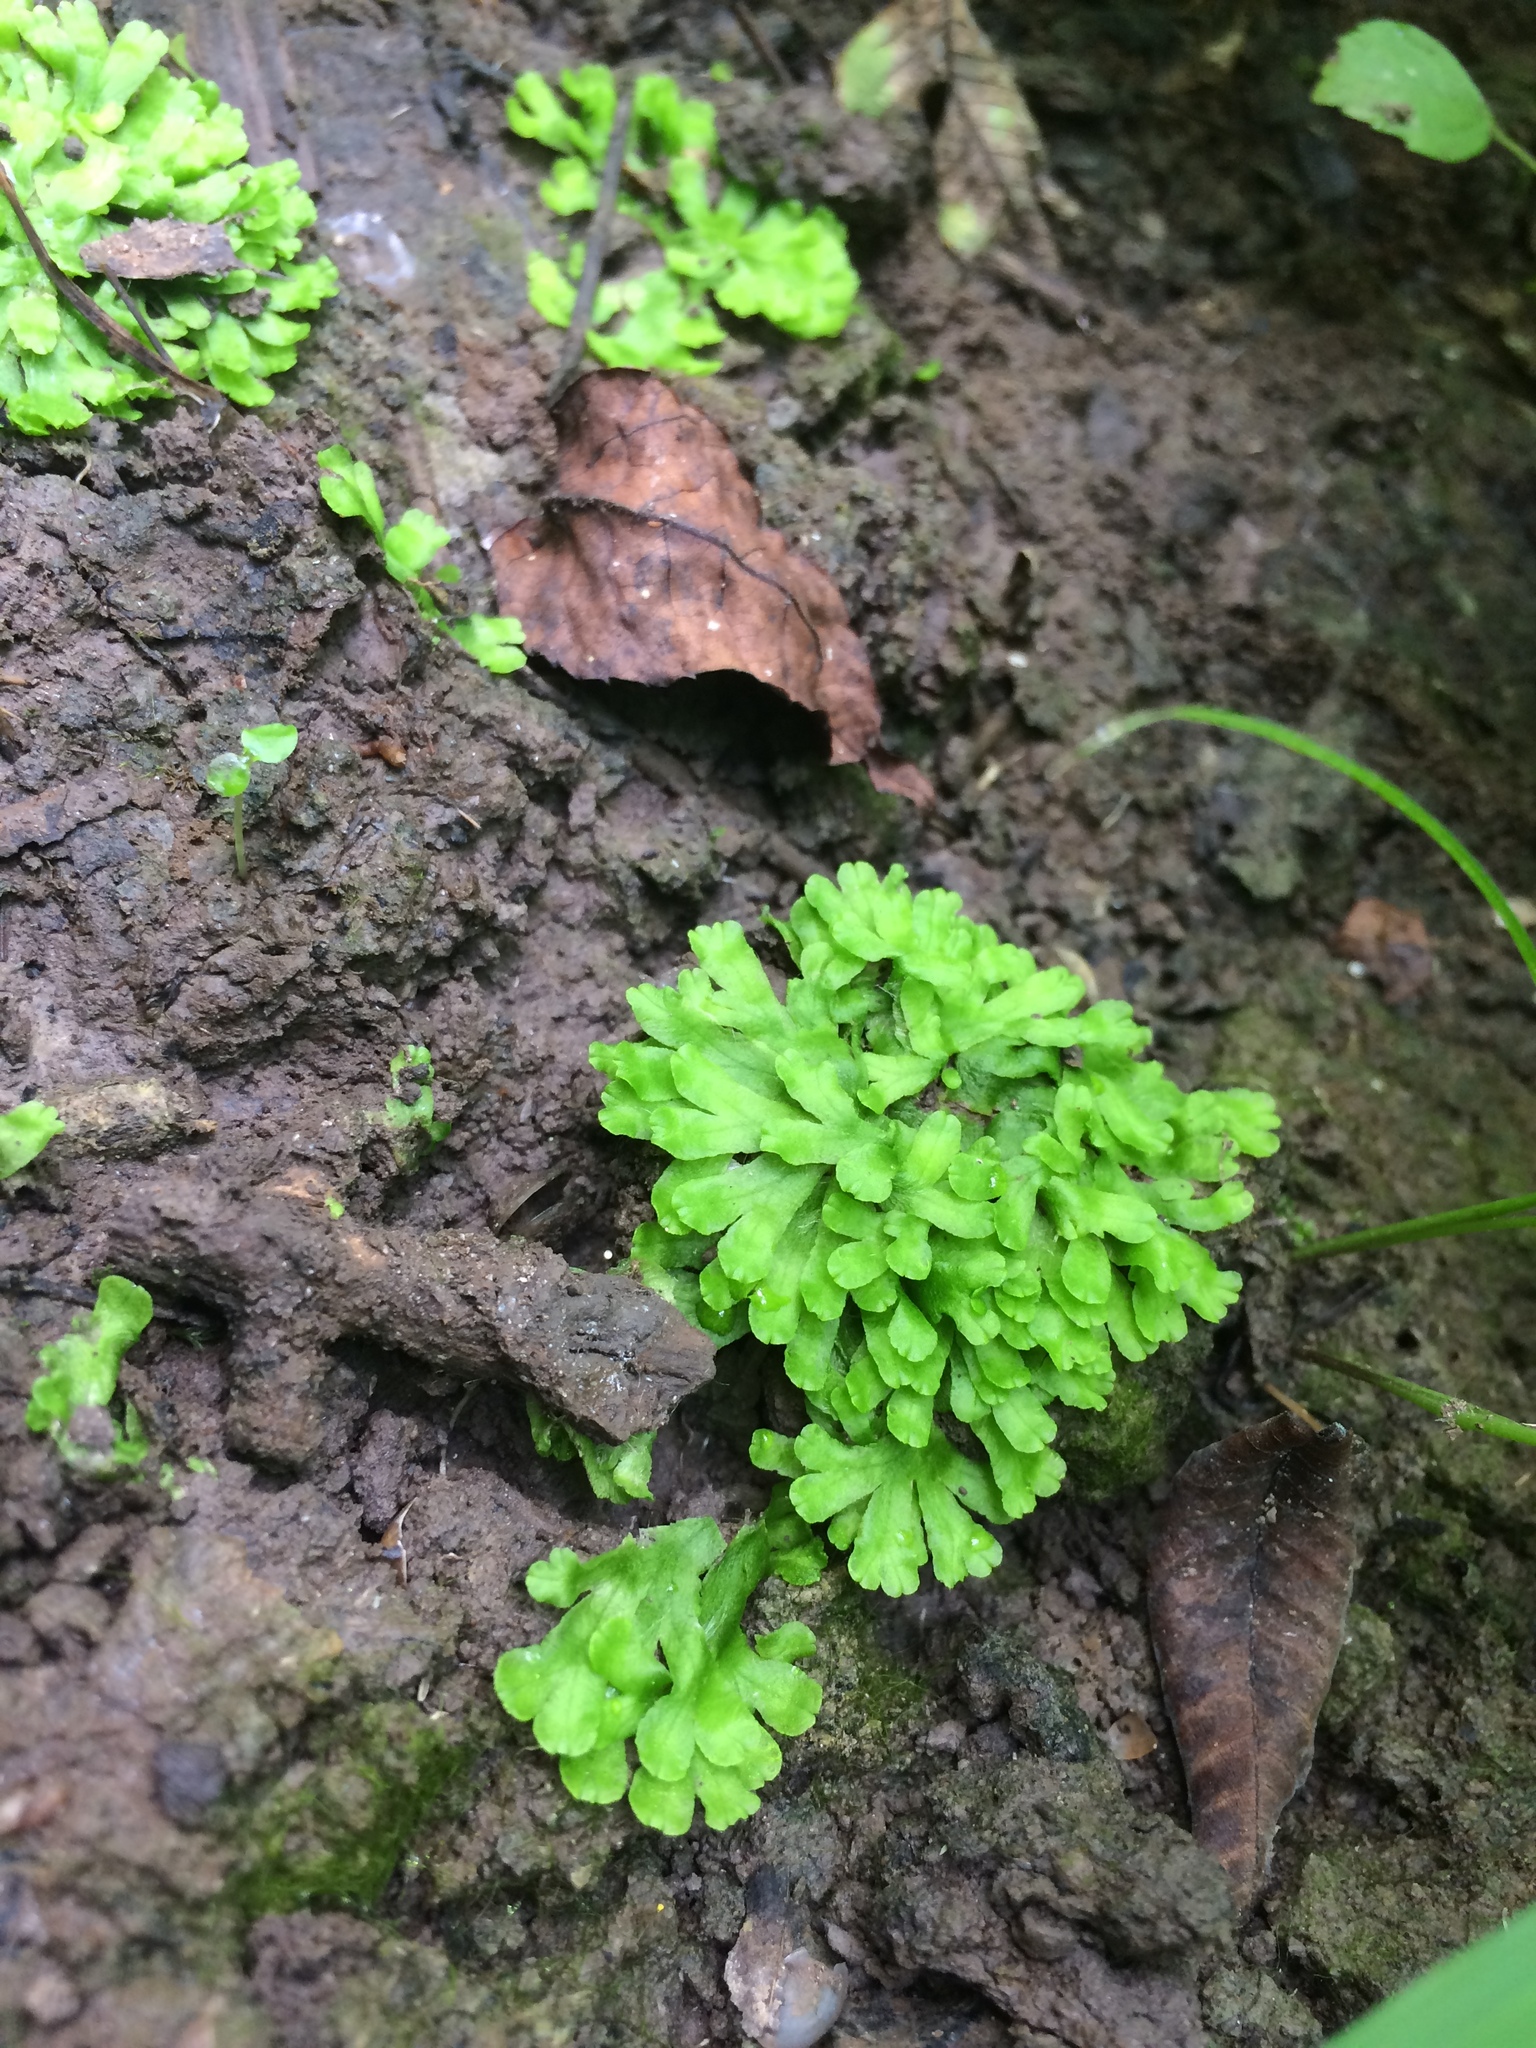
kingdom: Plantae
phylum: Marchantiophyta
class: Marchantiopsida
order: Marchantiales
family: Ricciaceae
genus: Ricciocarpos
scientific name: Ricciocarpos natans
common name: Purple-fringed liverwort
